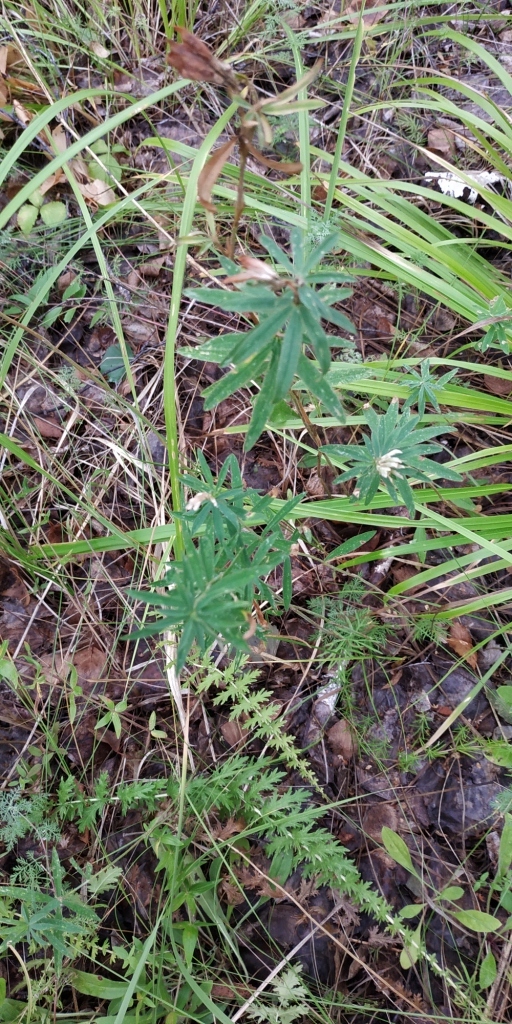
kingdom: Plantae
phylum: Tracheophyta
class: Magnoliopsida
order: Fabales
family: Fabaceae
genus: Trifolium
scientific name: Trifolium lupinaster
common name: Lupine clover
